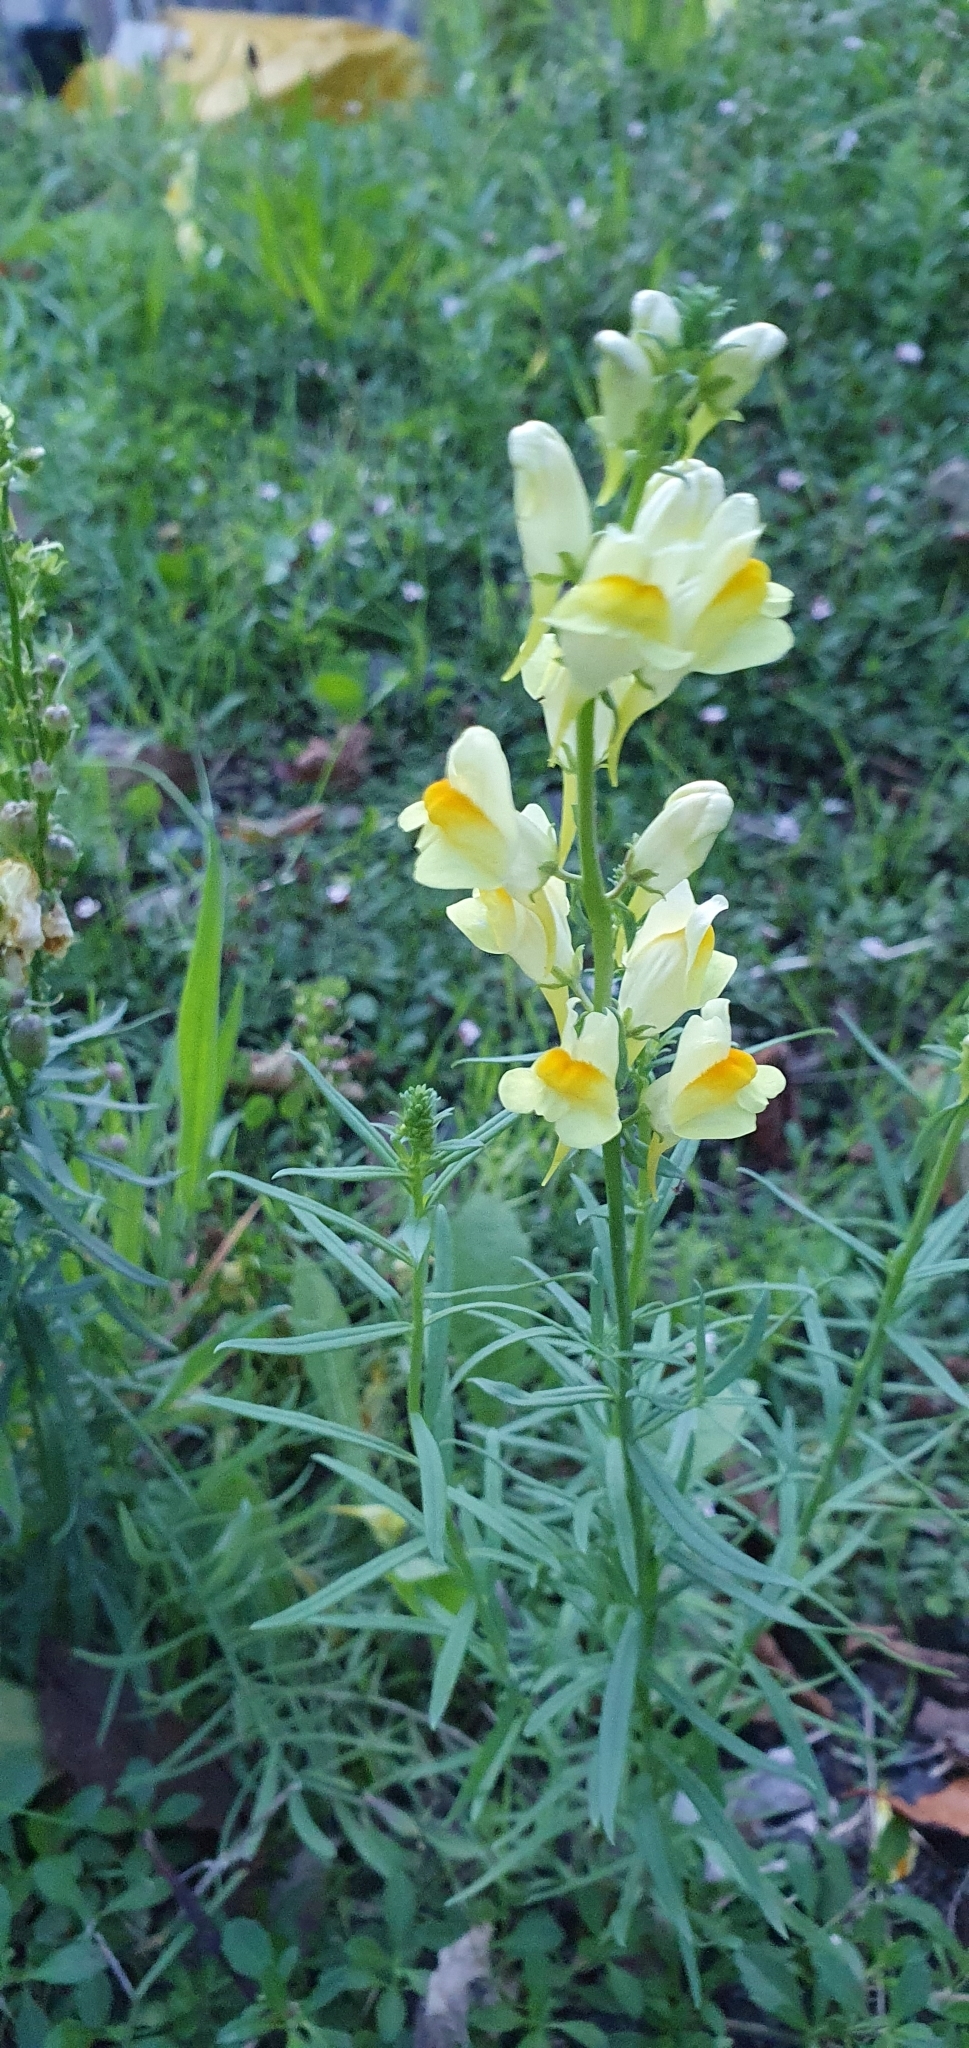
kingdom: Plantae
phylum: Tracheophyta
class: Magnoliopsida
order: Lamiales
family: Plantaginaceae
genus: Linaria
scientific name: Linaria vulgaris
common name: Butter and eggs
